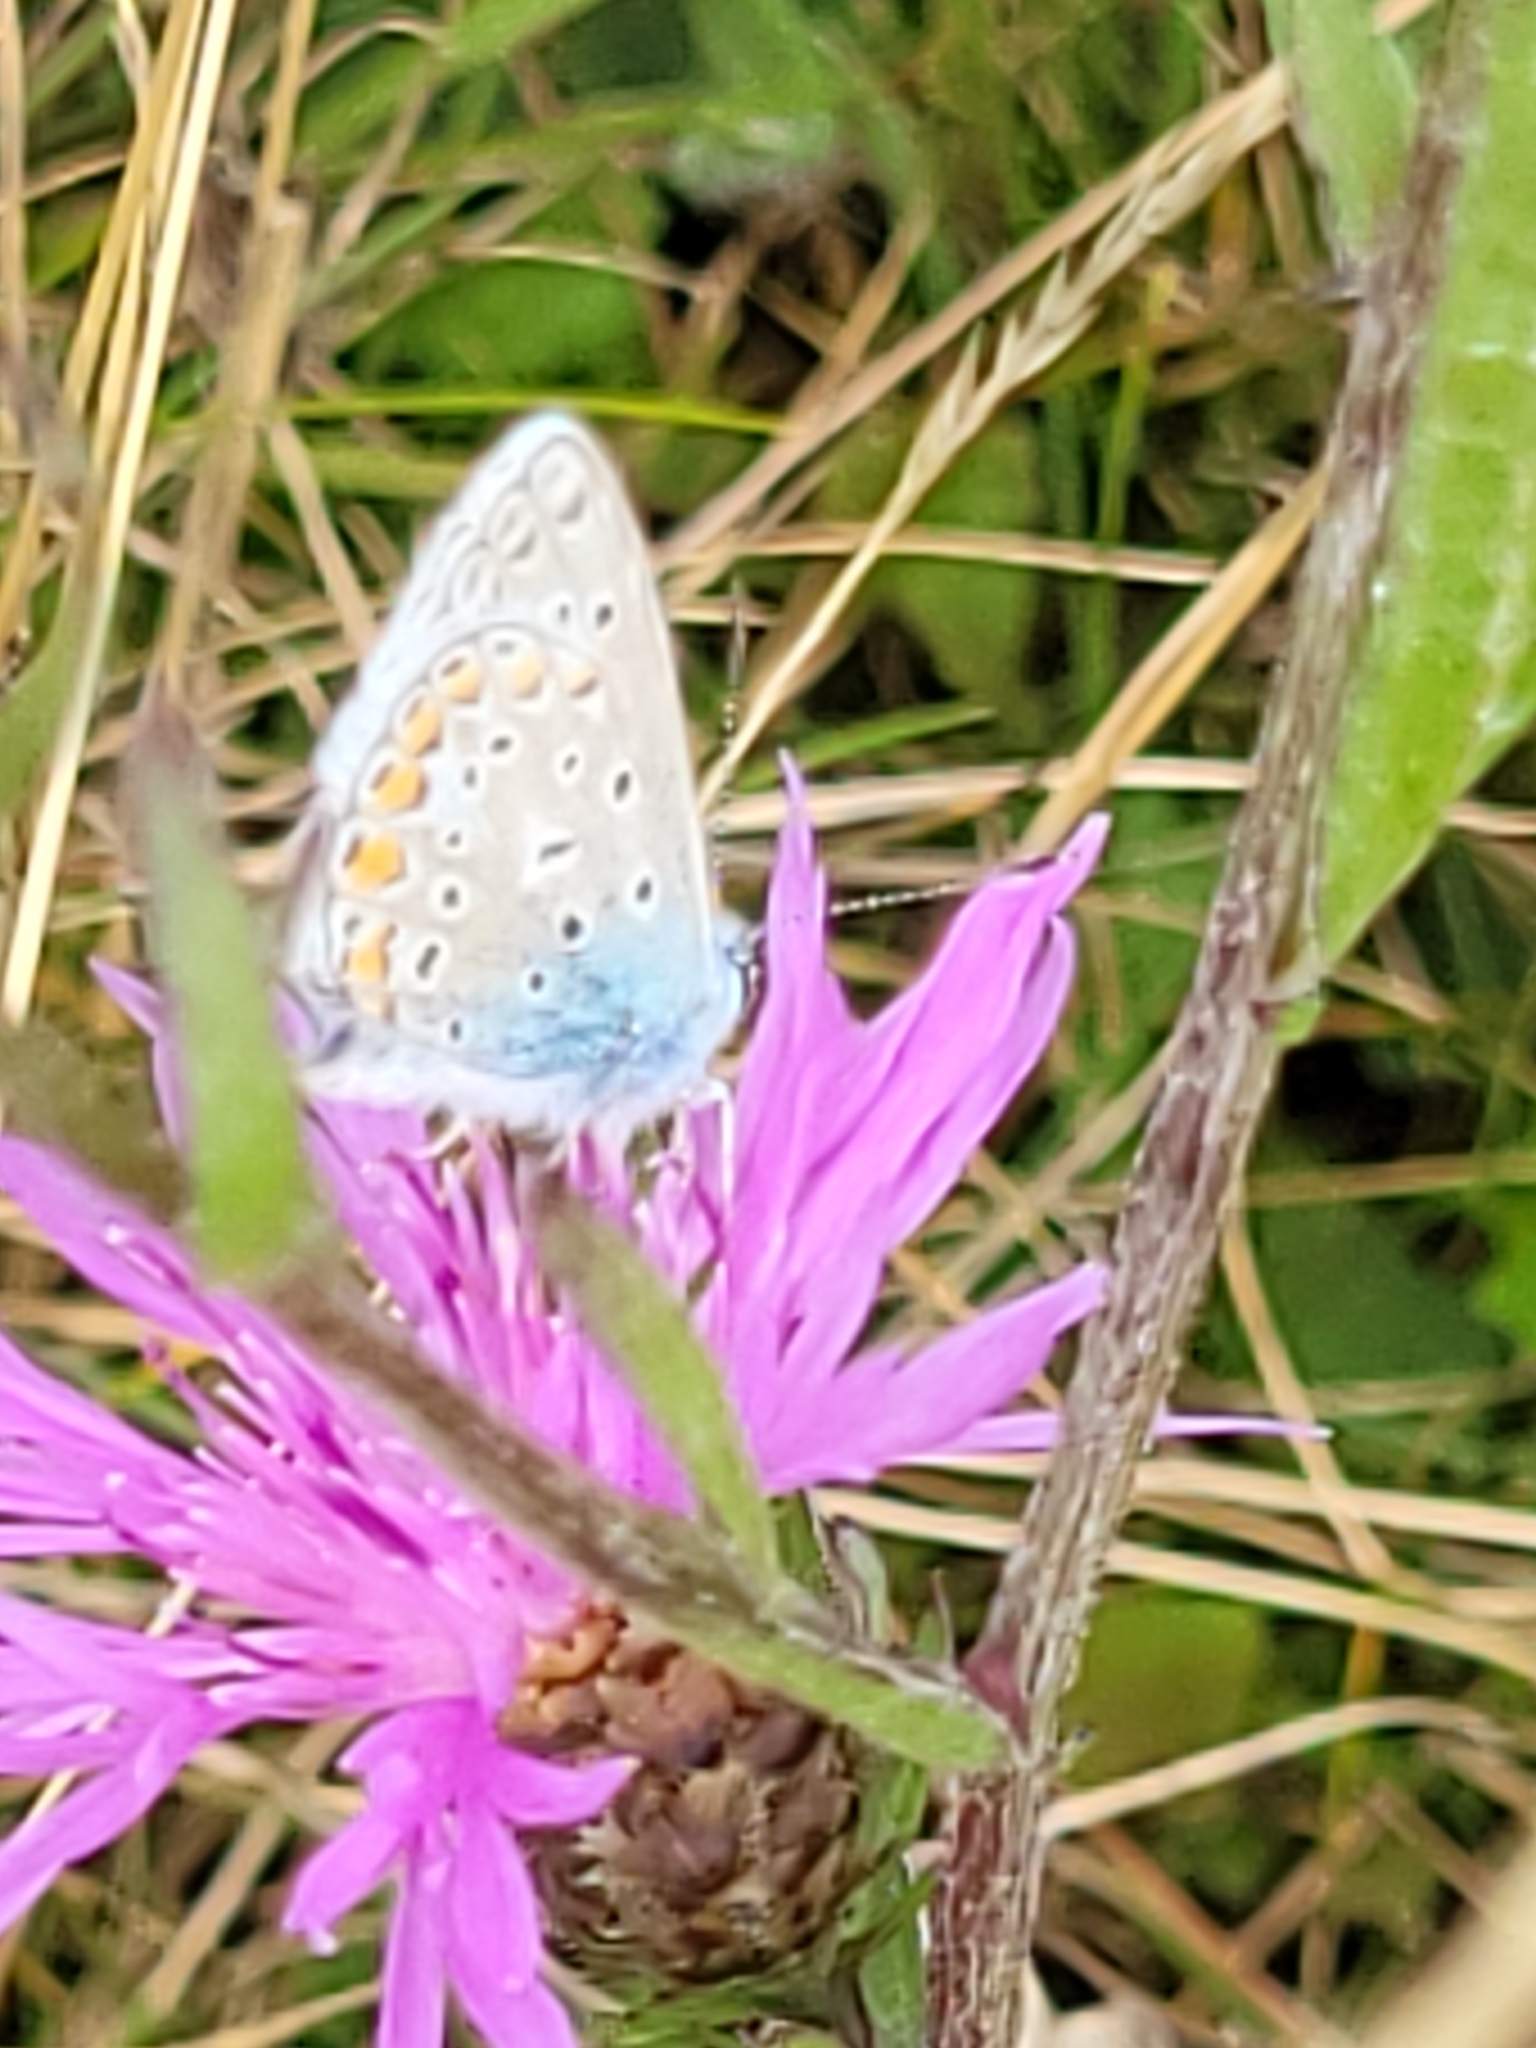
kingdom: Animalia
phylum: Arthropoda
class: Insecta
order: Lepidoptera
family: Lycaenidae
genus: Polyommatus
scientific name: Polyommatus icarus
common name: Common blue
